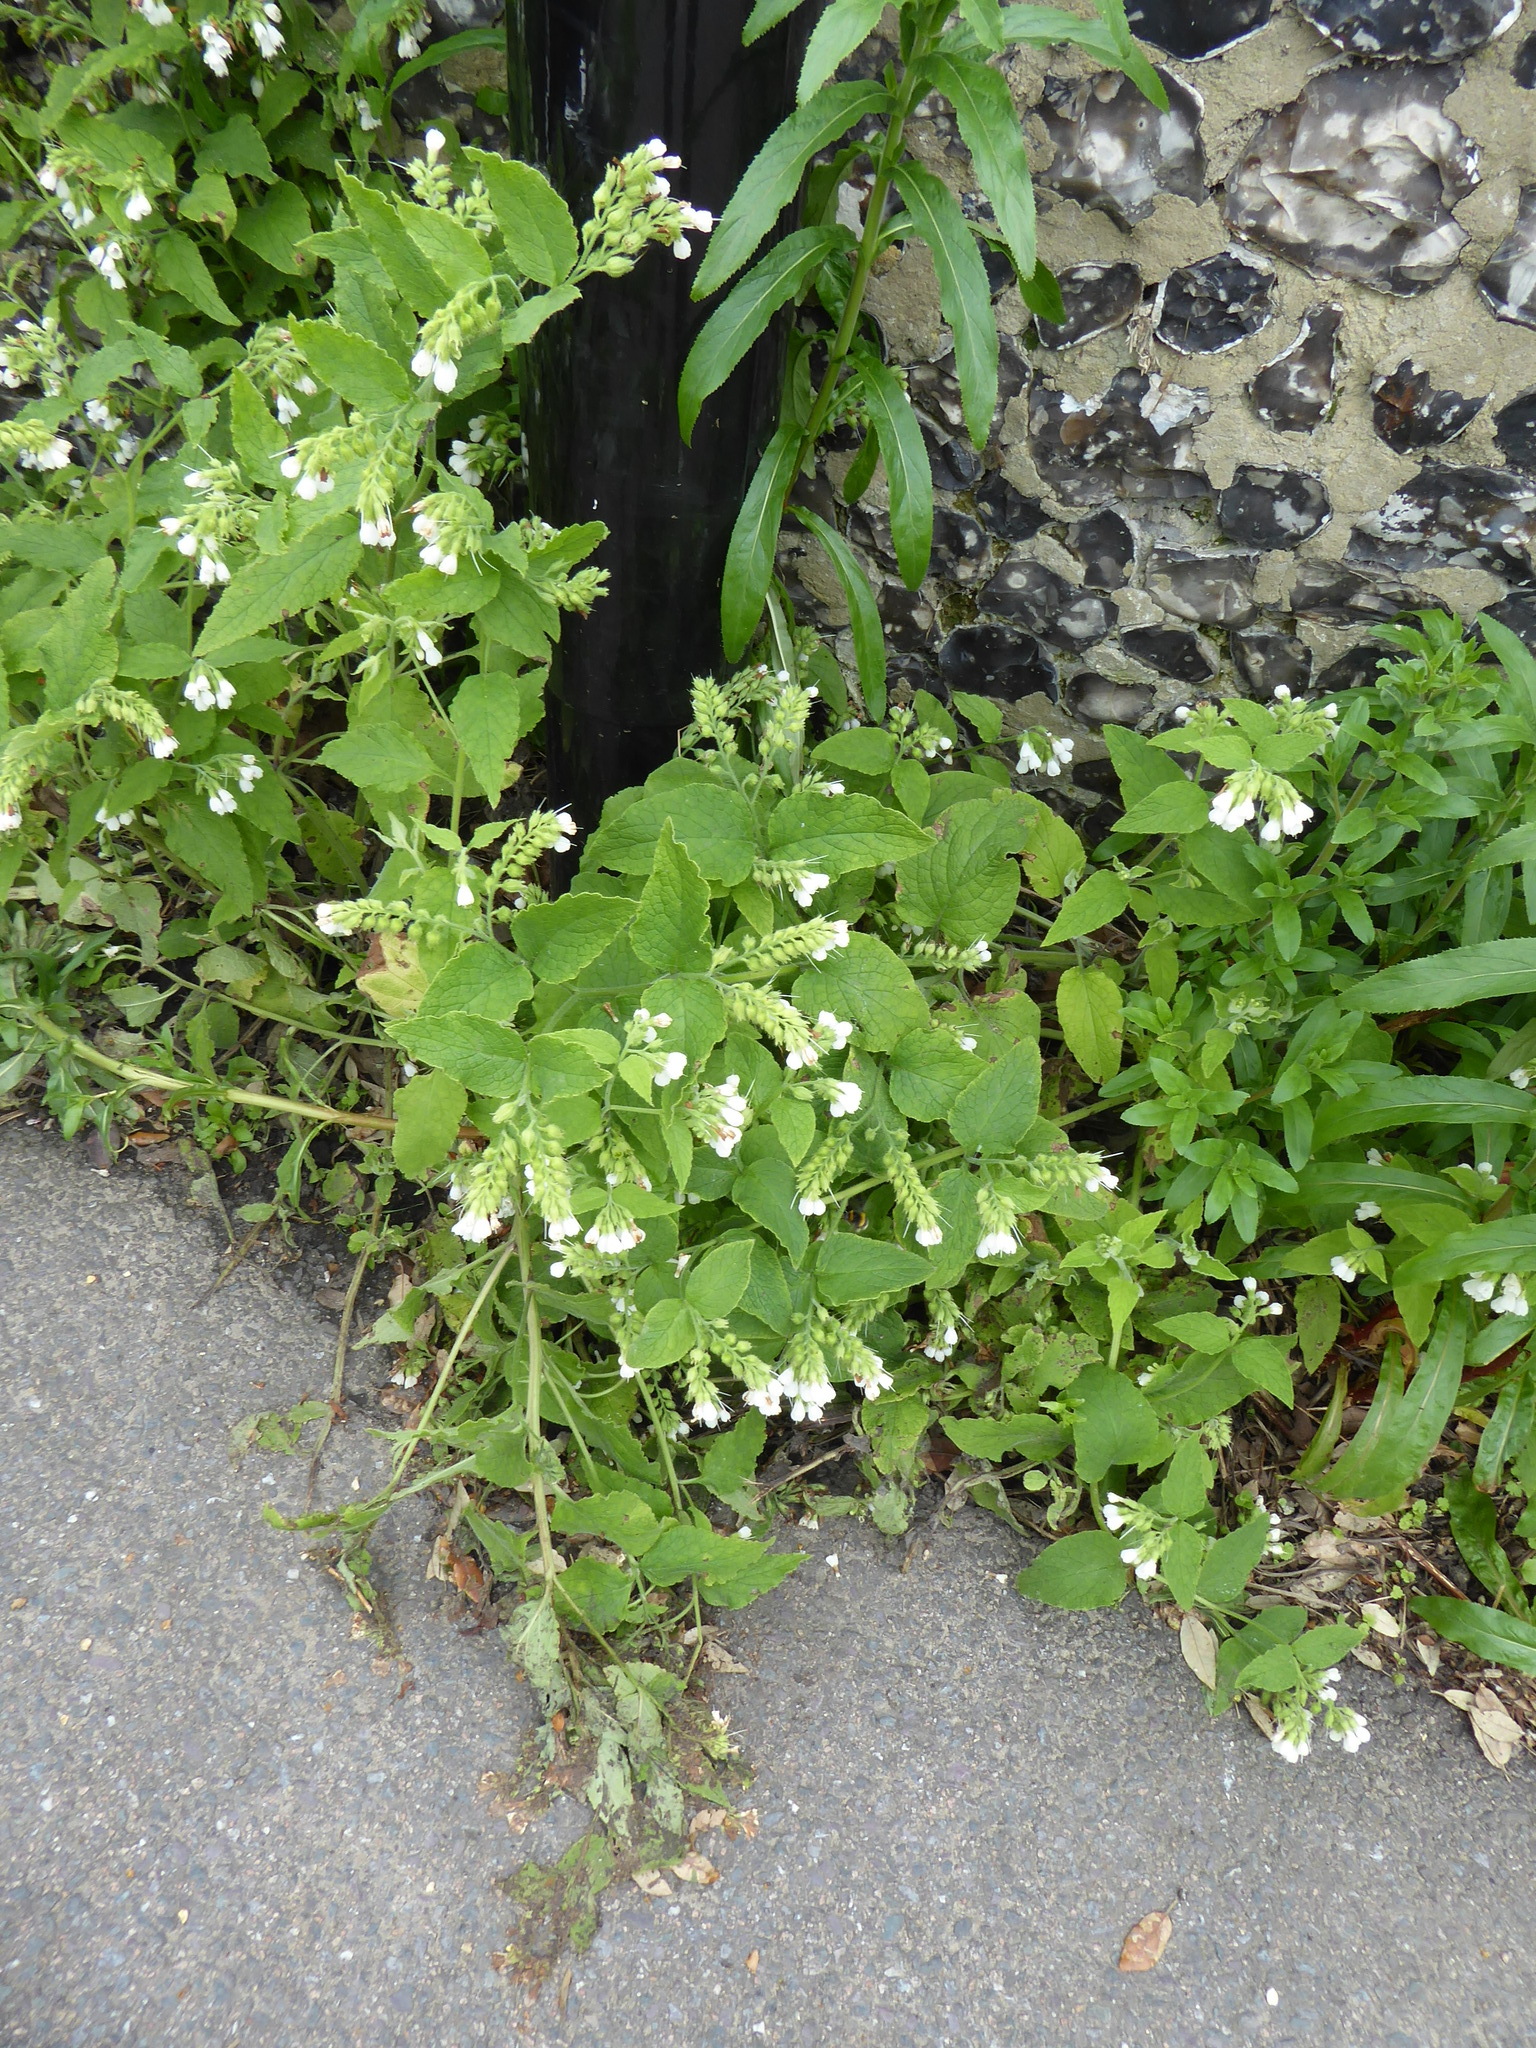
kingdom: Plantae
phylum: Tracheophyta
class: Magnoliopsida
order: Boraginales
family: Boraginaceae
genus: Symphytum
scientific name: Symphytum orientale
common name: White comfrey
